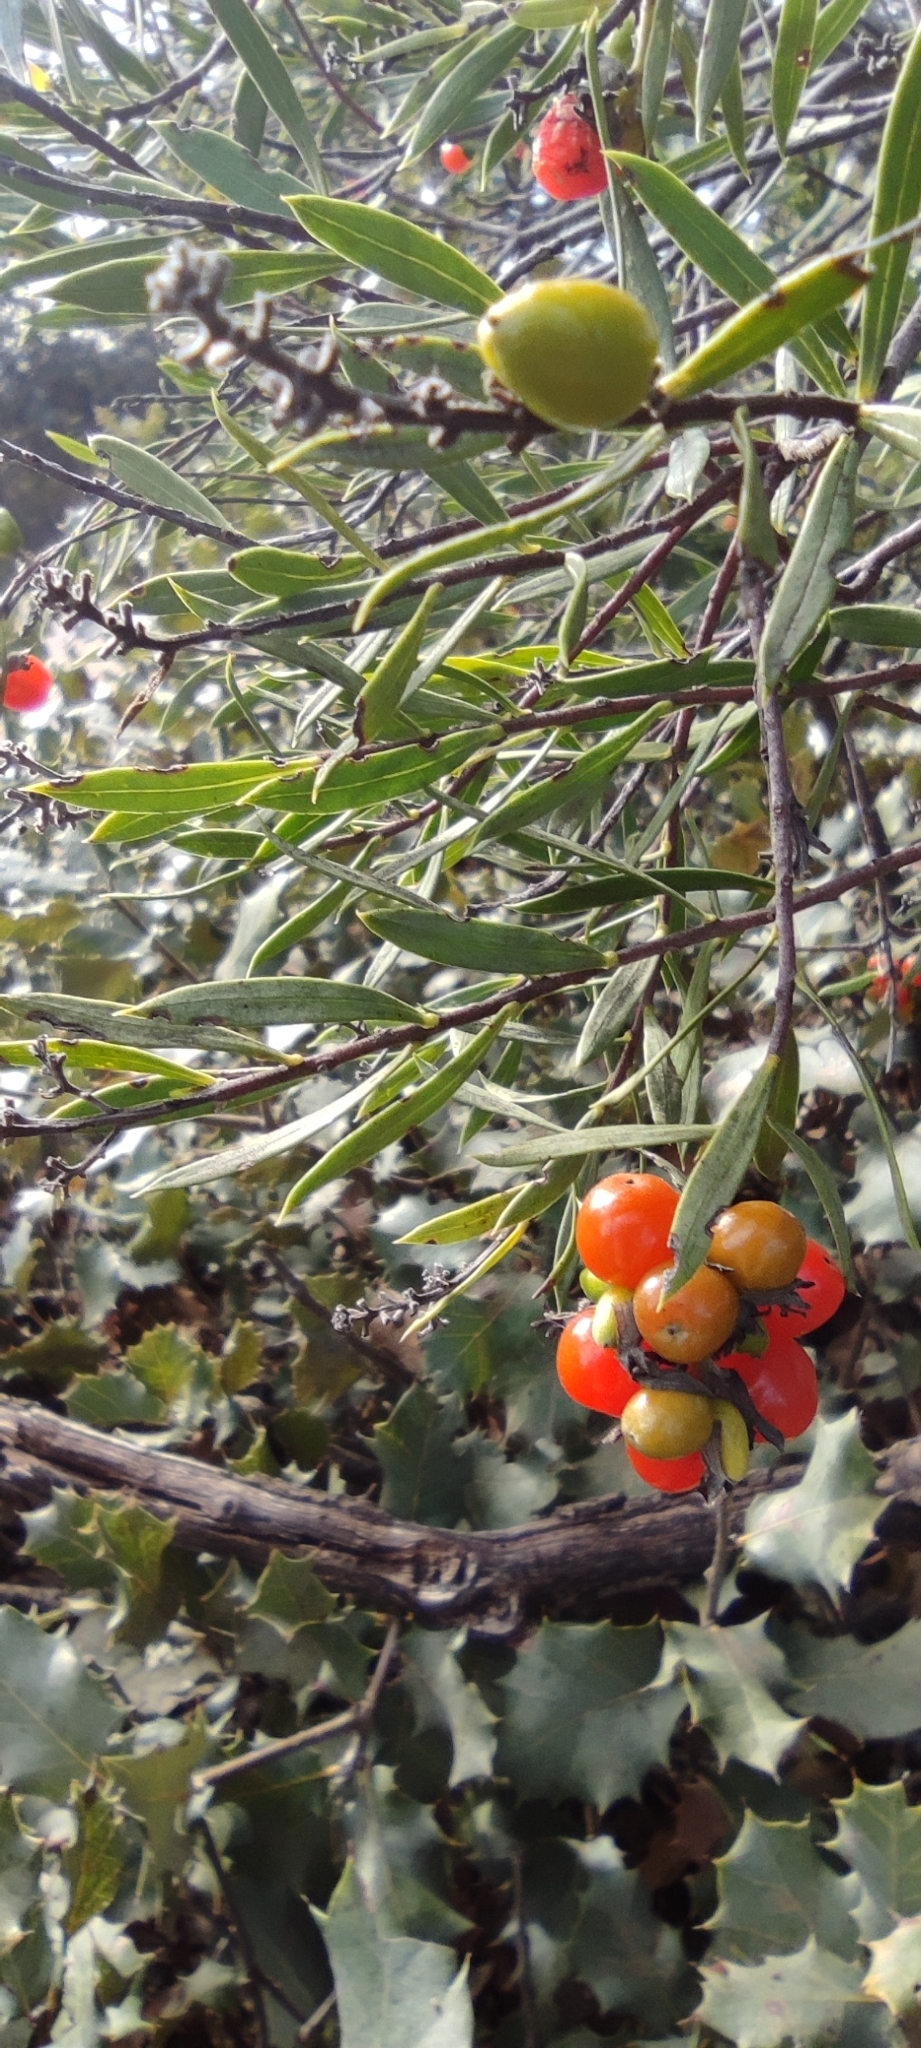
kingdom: Plantae
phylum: Tracheophyta
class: Magnoliopsida
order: Malvales
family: Thymelaeaceae
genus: Daphne
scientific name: Daphne gnidium
